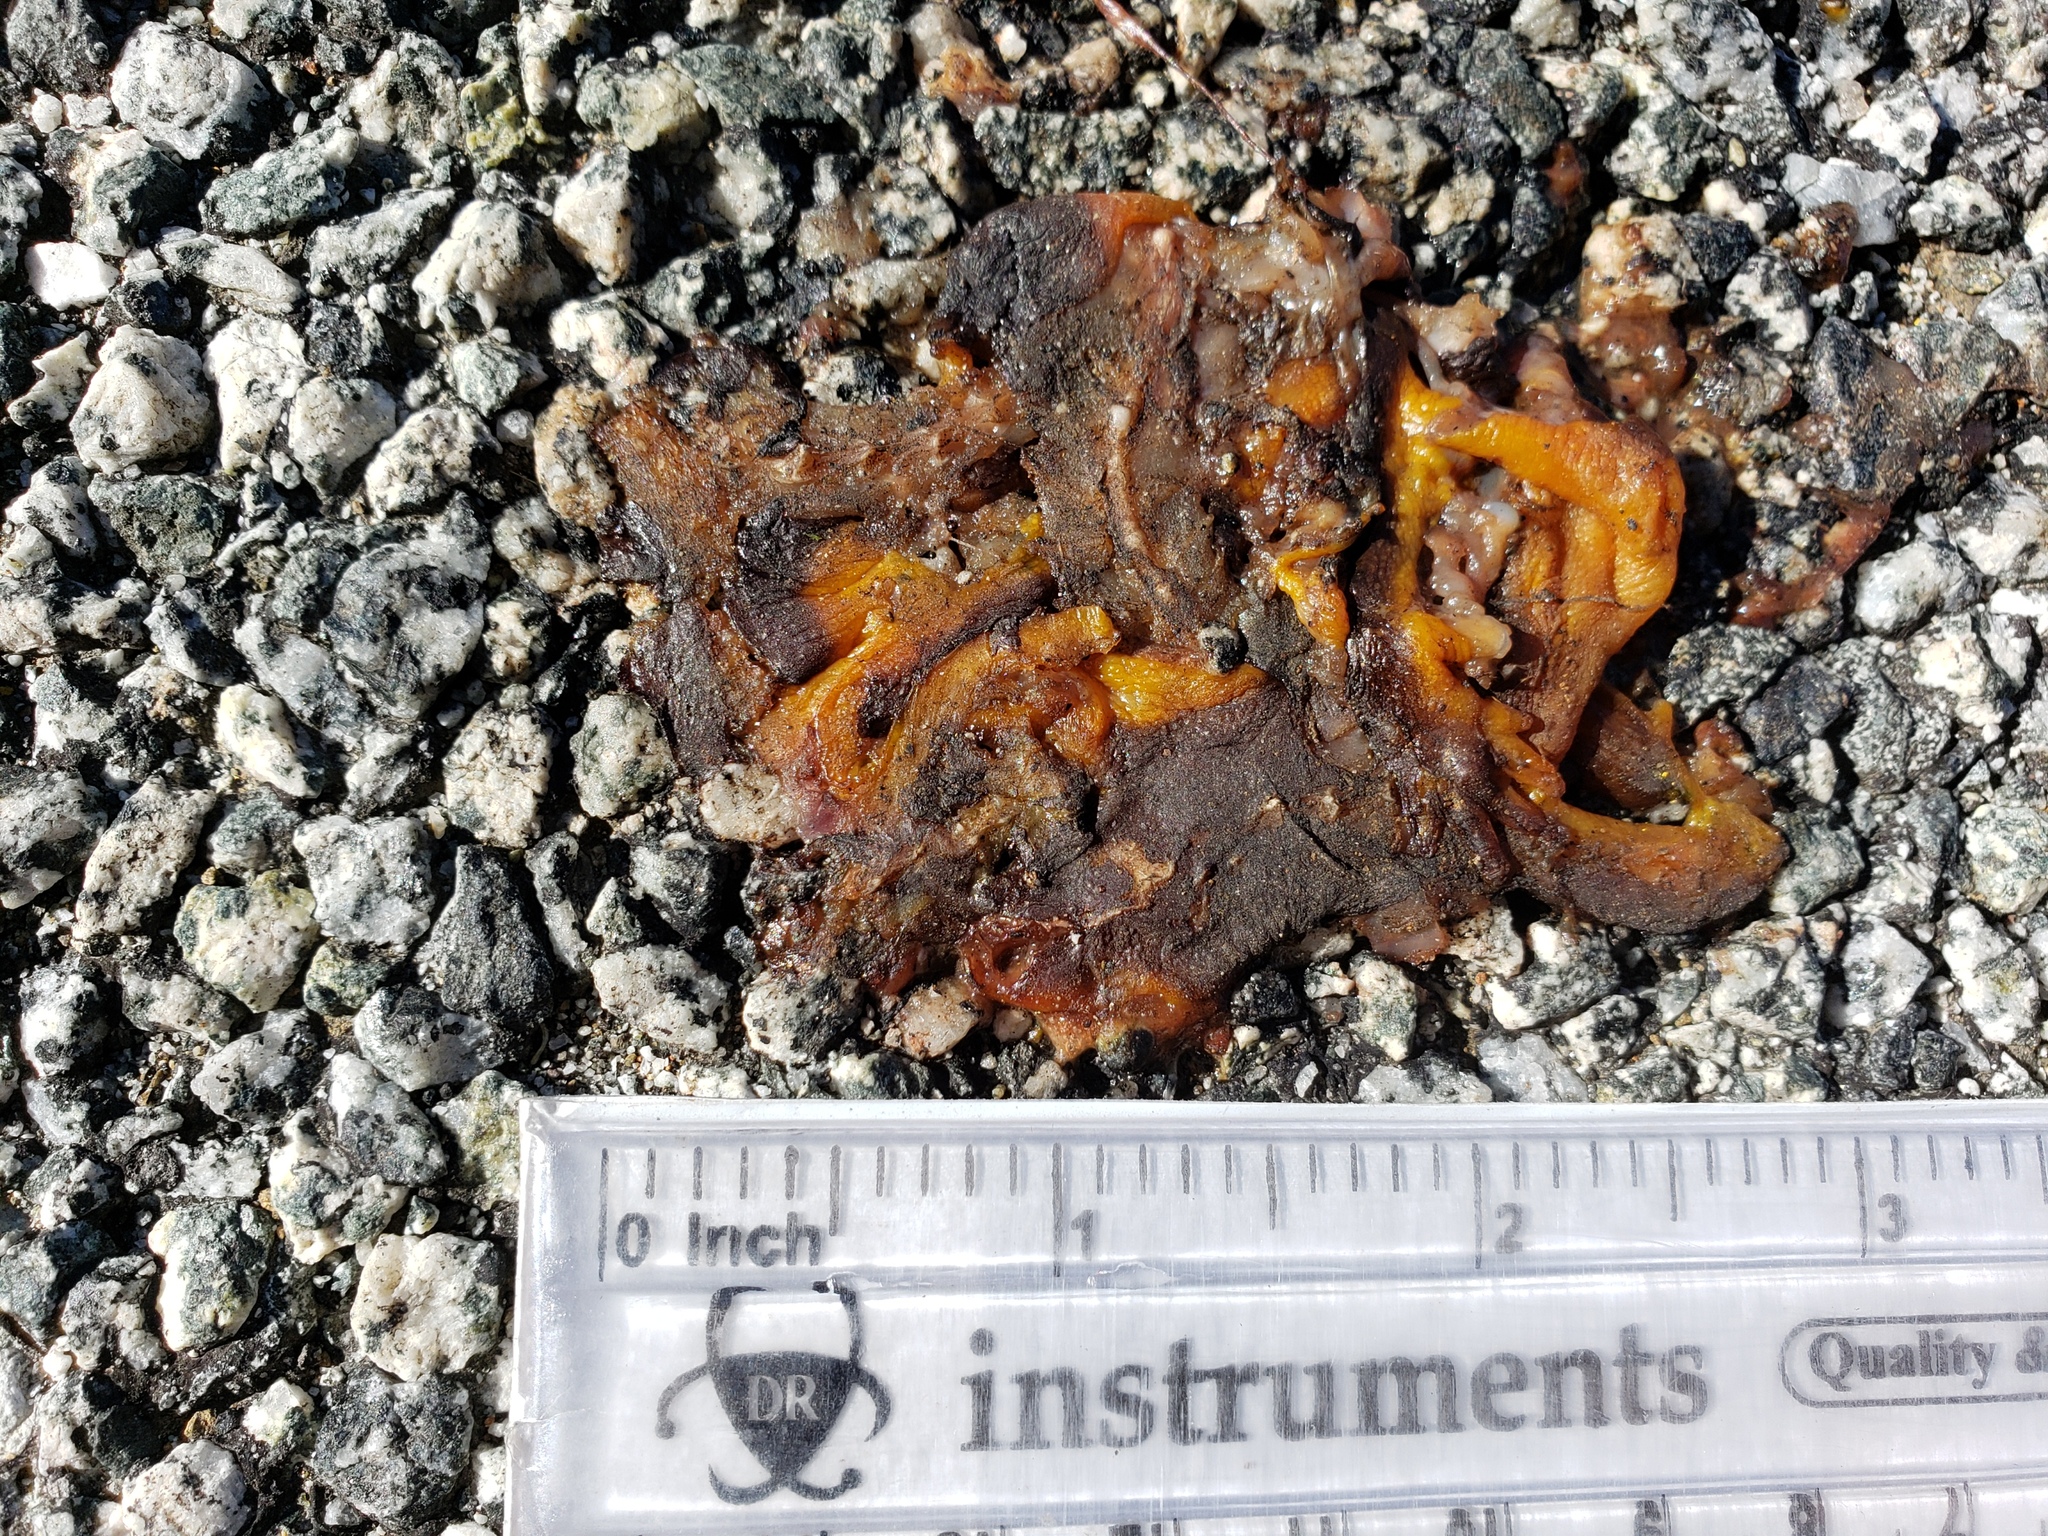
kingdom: Animalia
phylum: Chordata
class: Amphibia
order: Caudata
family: Salamandridae
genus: Taricha
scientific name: Taricha
